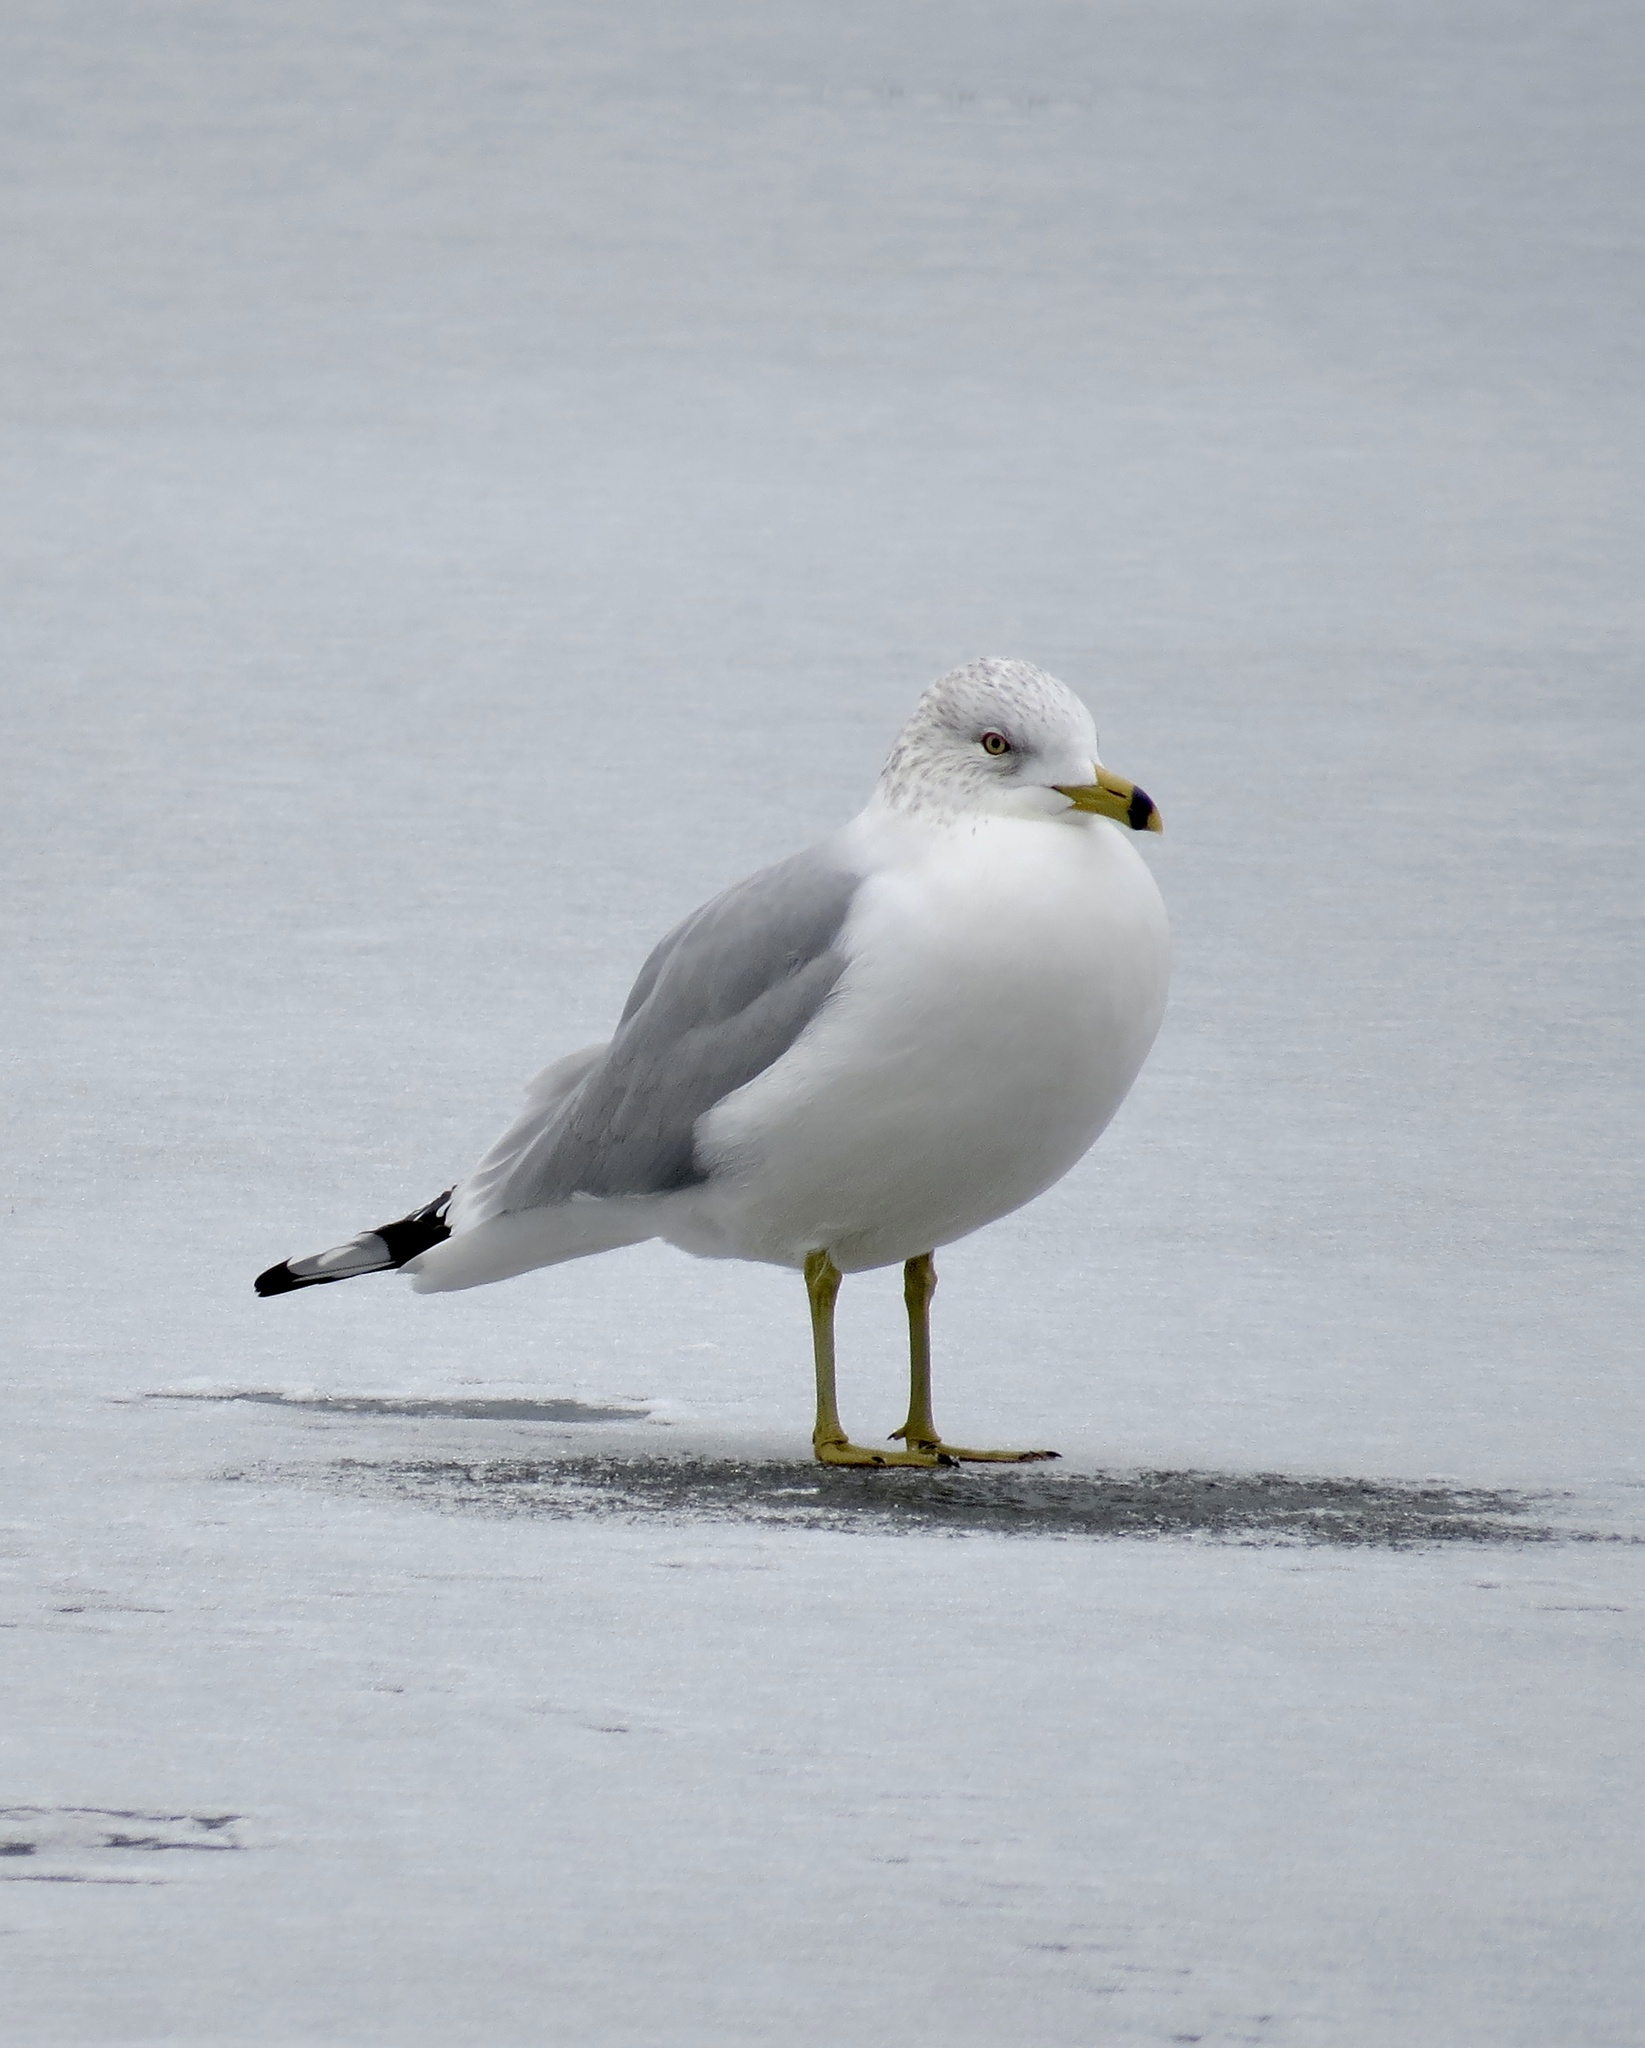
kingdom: Animalia
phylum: Chordata
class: Aves
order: Charadriiformes
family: Laridae
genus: Larus
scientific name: Larus delawarensis
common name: Ring-billed gull
